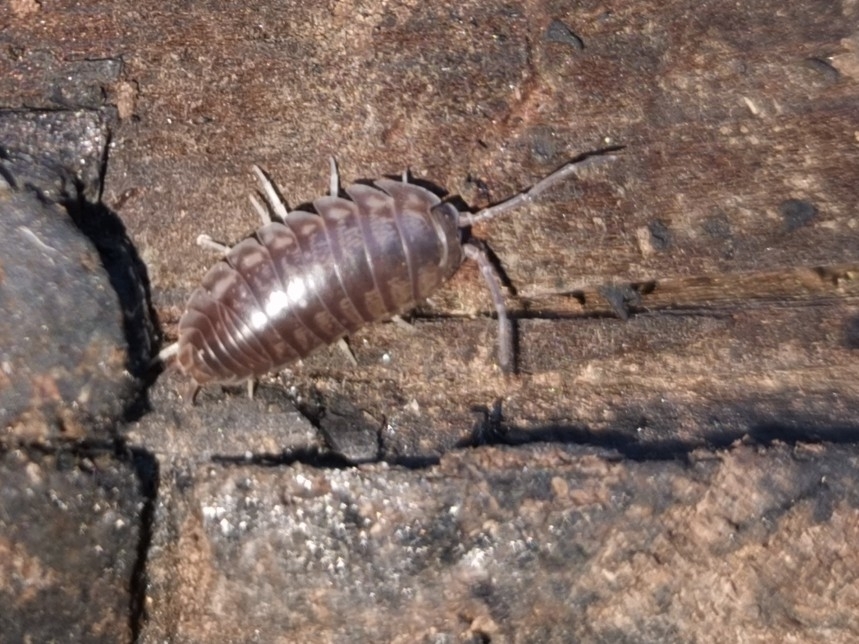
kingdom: Animalia
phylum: Arthropoda
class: Malacostraca
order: Isopoda
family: Cylisticidae
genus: Cylisticus
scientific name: Cylisticus convexus
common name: Curly woodlouse
